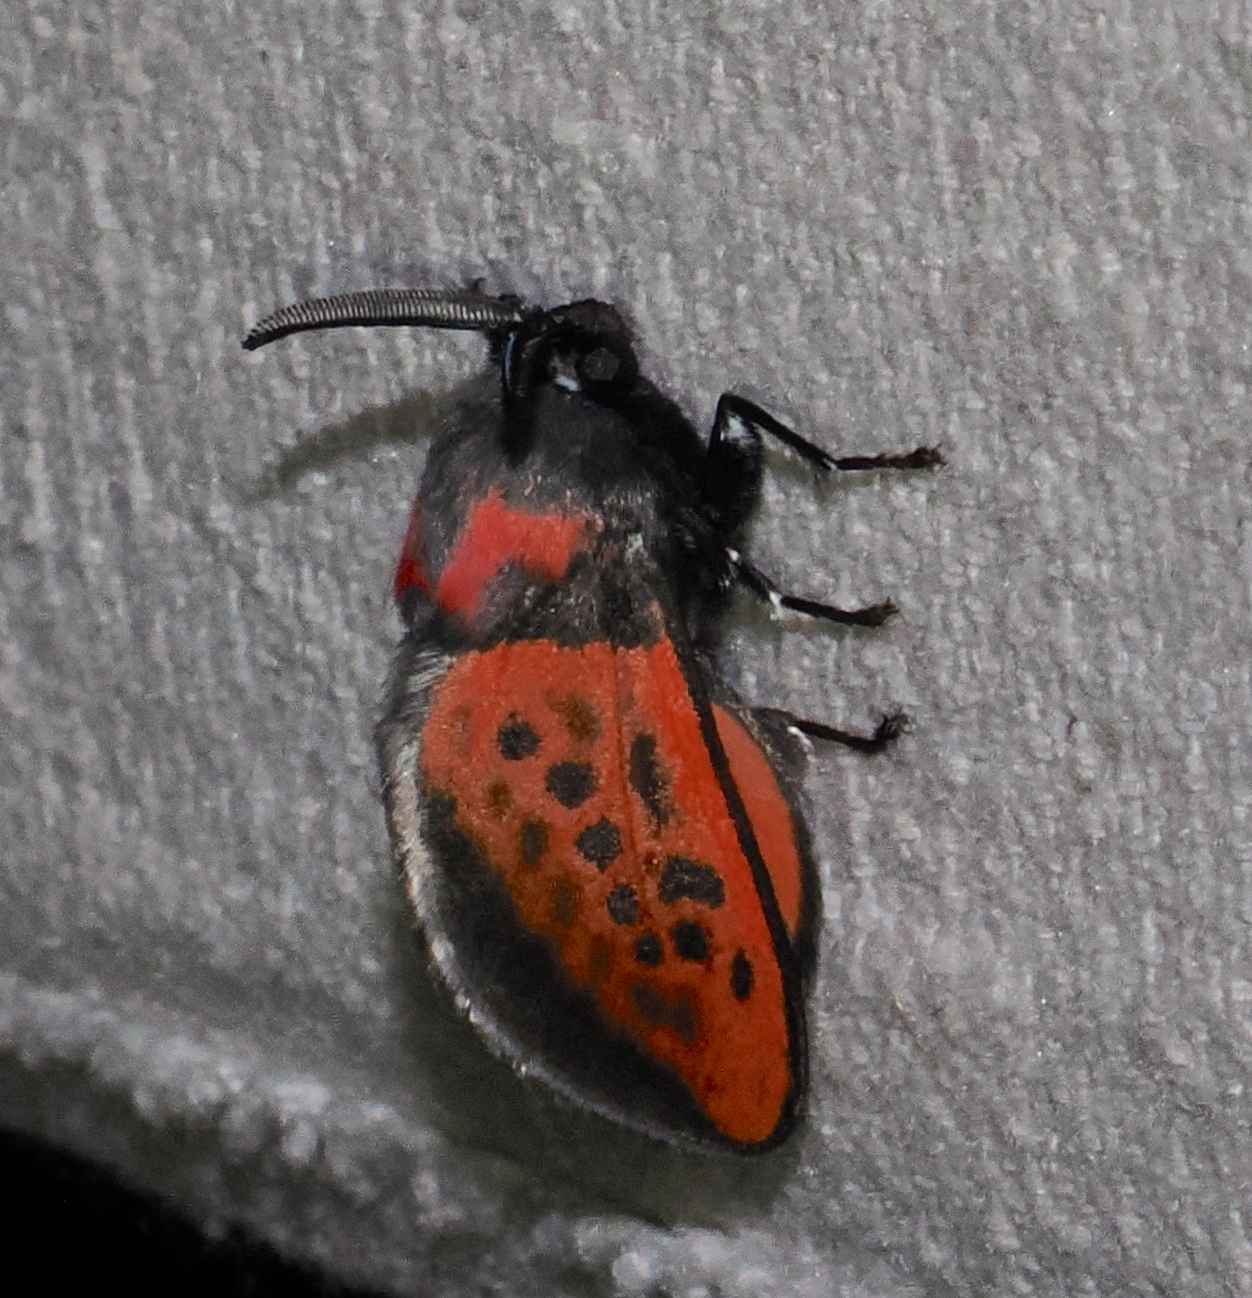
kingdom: Animalia
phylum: Arthropoda
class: Insecta
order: Lepidoptera
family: Megalopygidae
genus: Langucys
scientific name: Langucys nigropuncta
